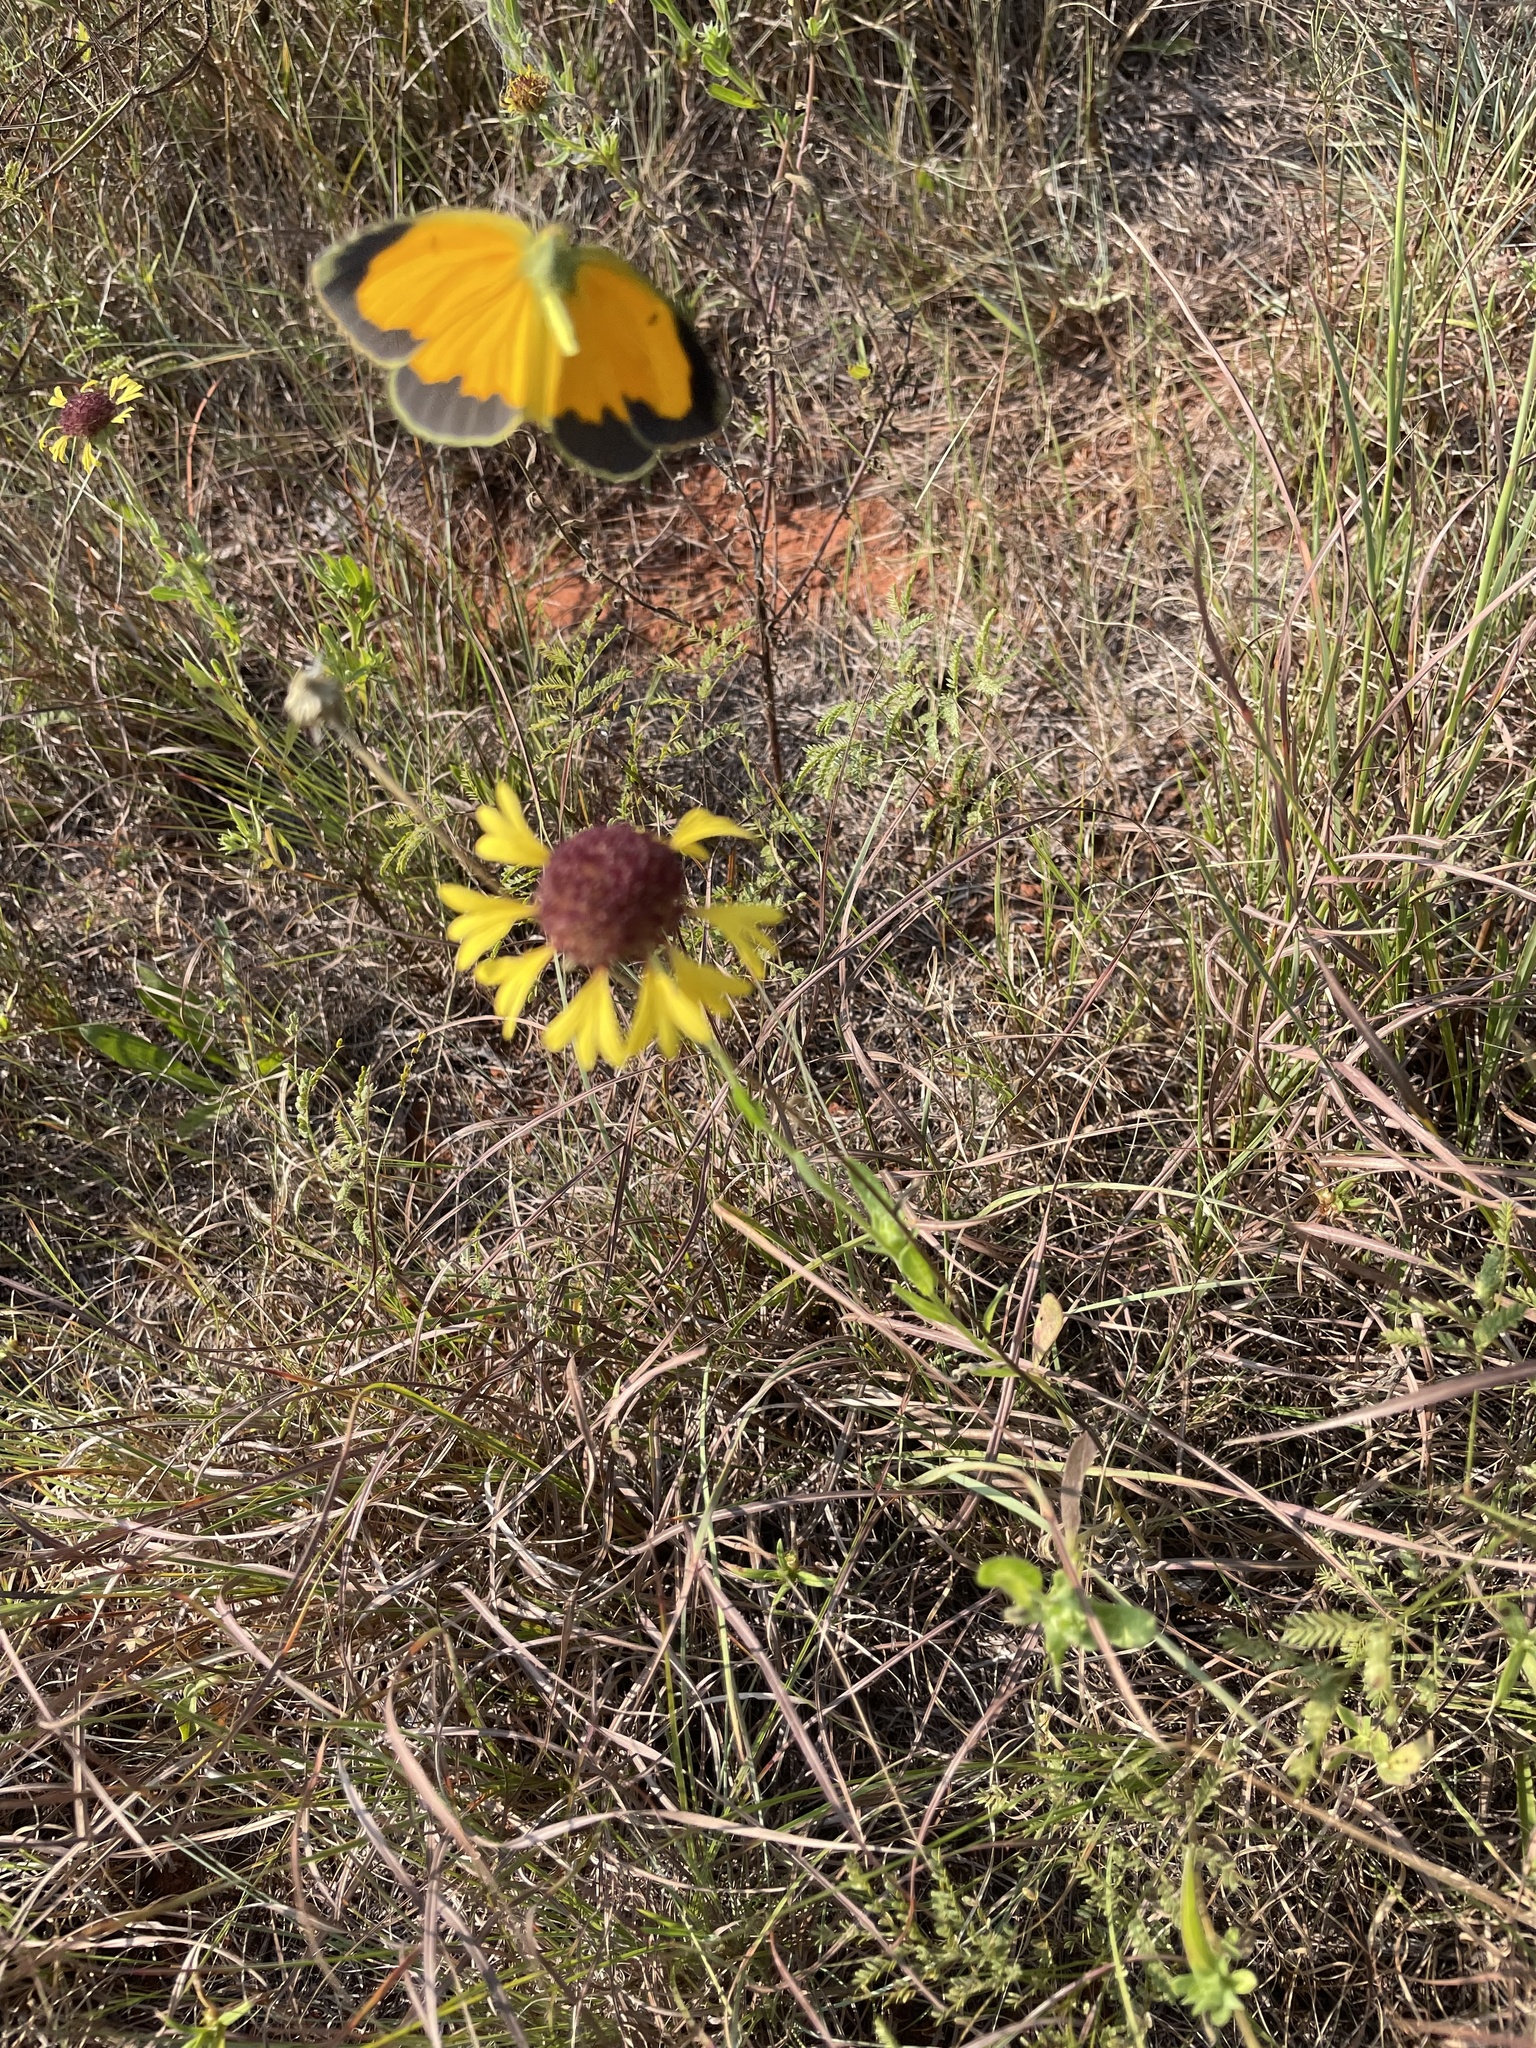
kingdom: Animalia
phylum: Arthropoda
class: Insecta
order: Lepidoptera
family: Pieridae
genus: Abaeis
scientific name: Abaeis nicippe
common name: Sleepy orange
